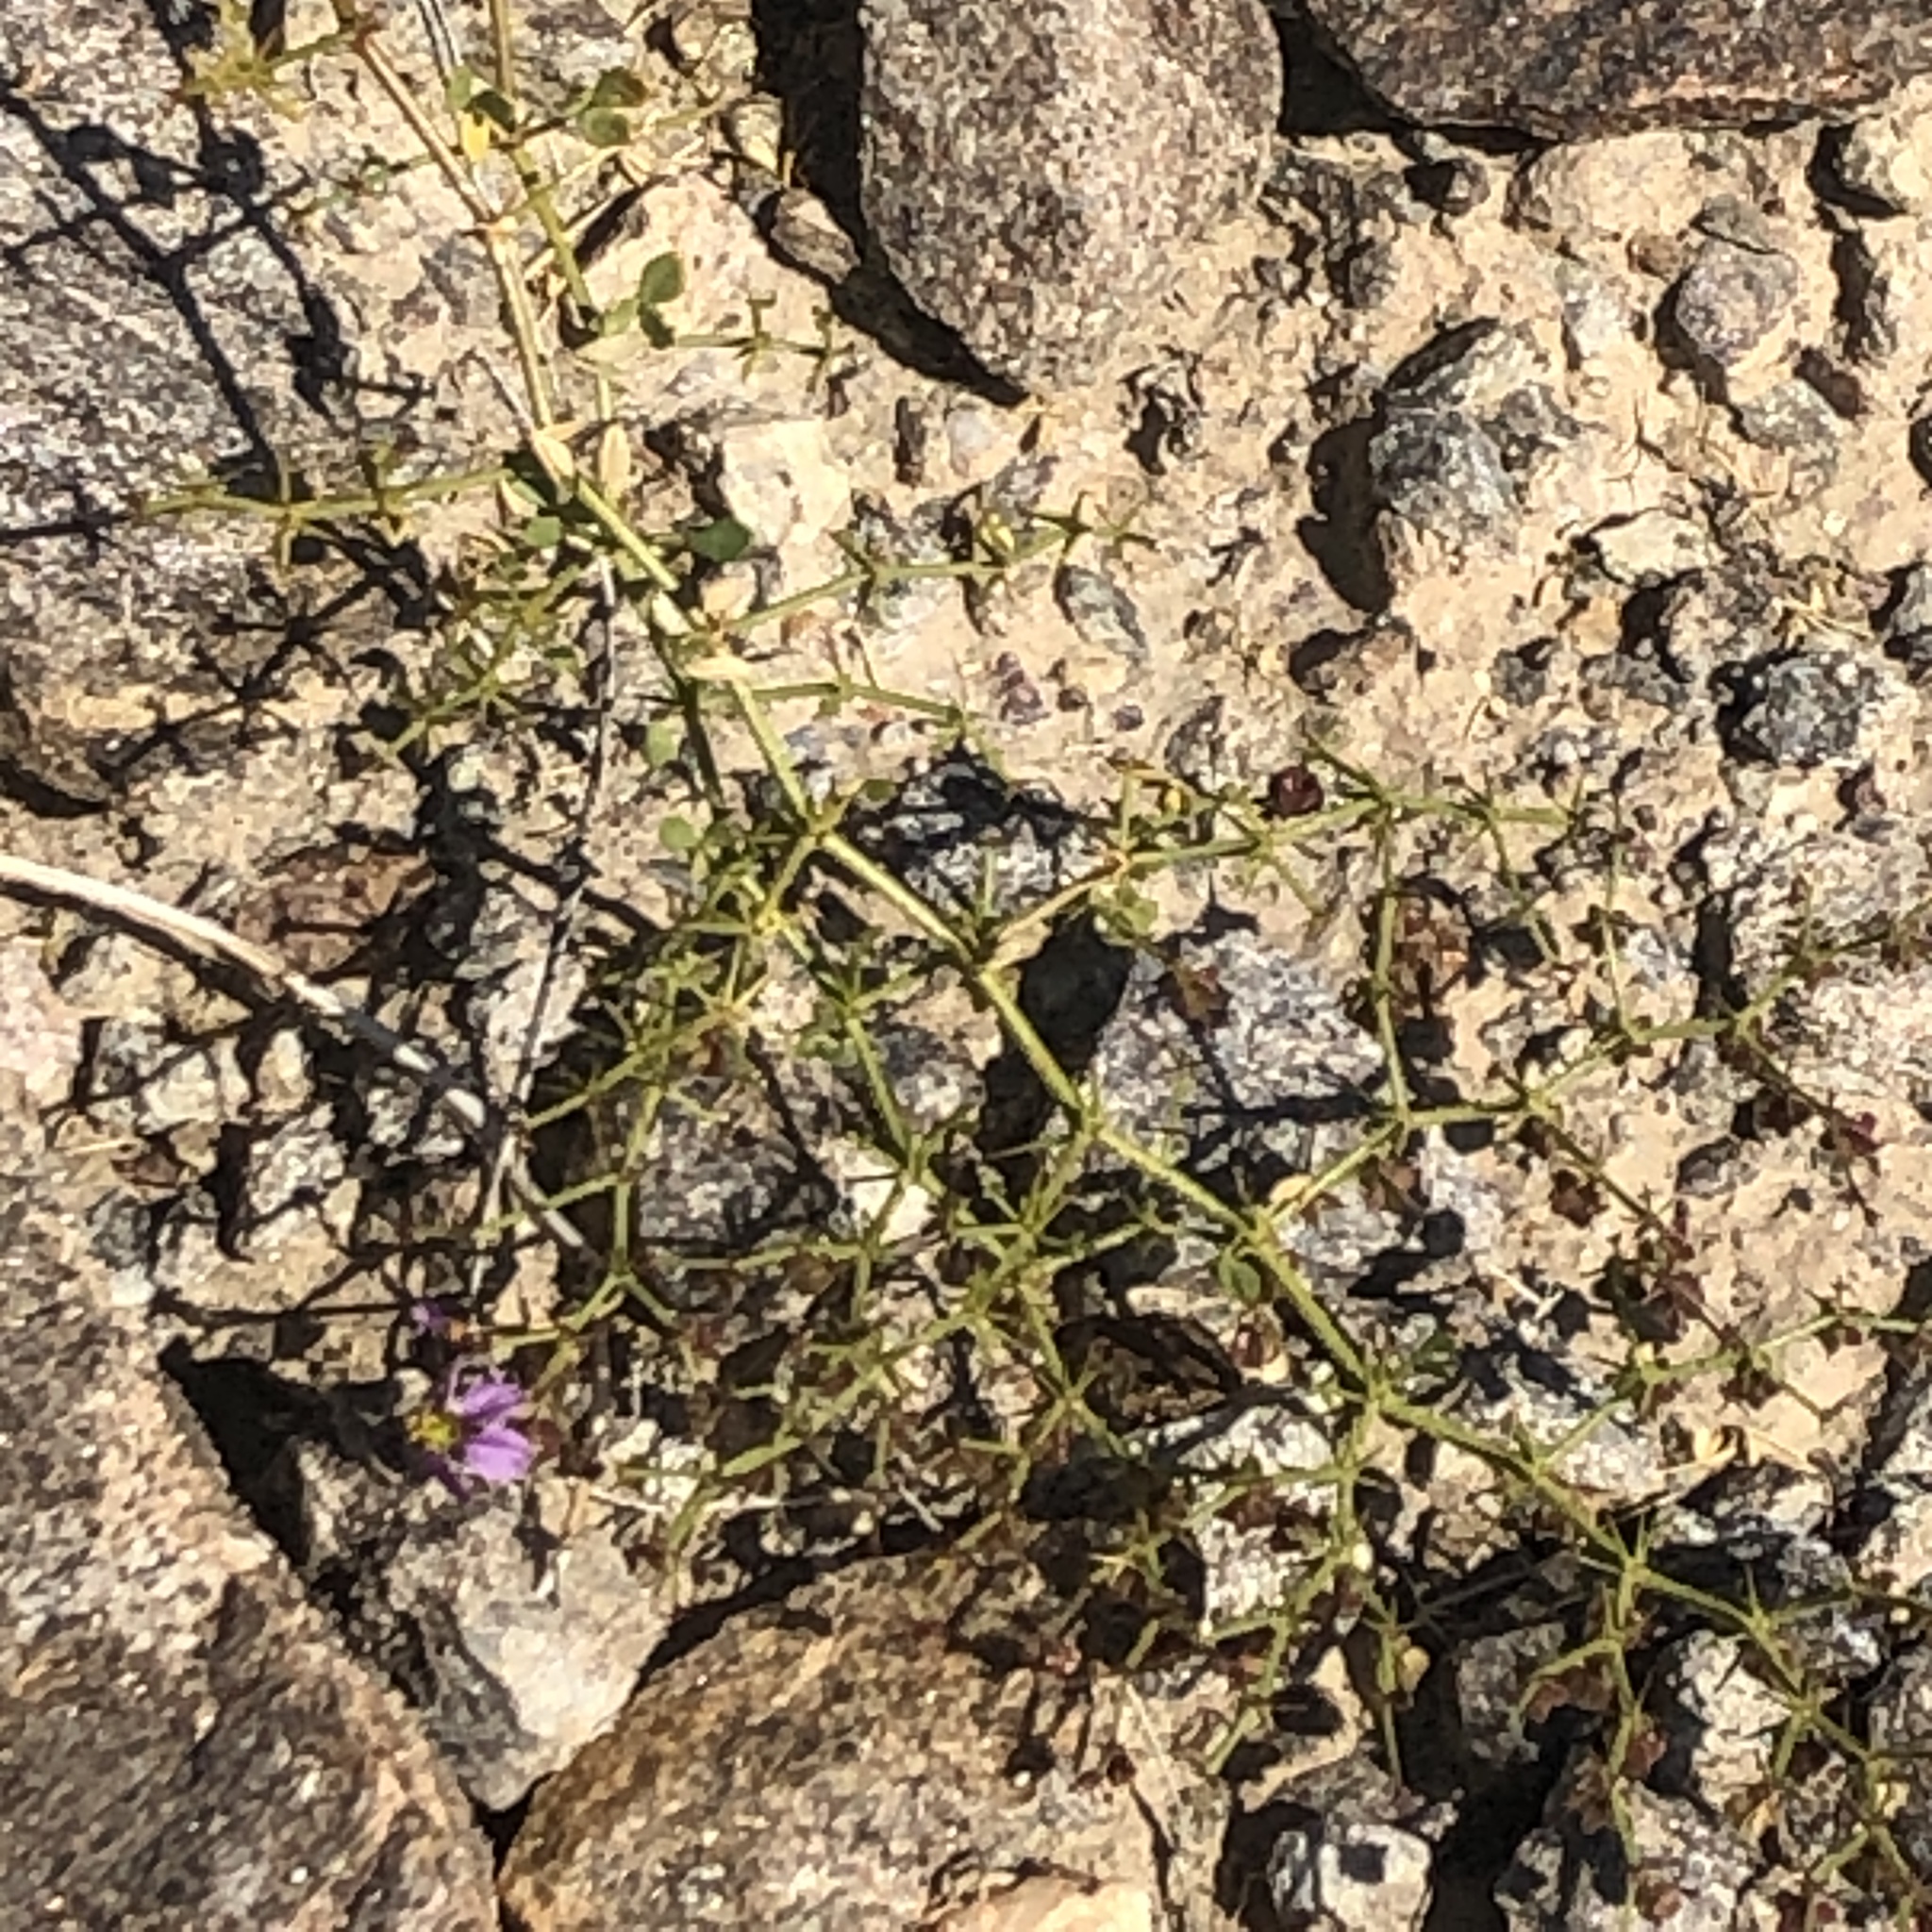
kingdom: Plantae
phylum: Tracheophyta
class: Magnoliopsida
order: Zygophyllales
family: Zygophyllaceae
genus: Fagonia
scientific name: Fagonia pachyacantha
